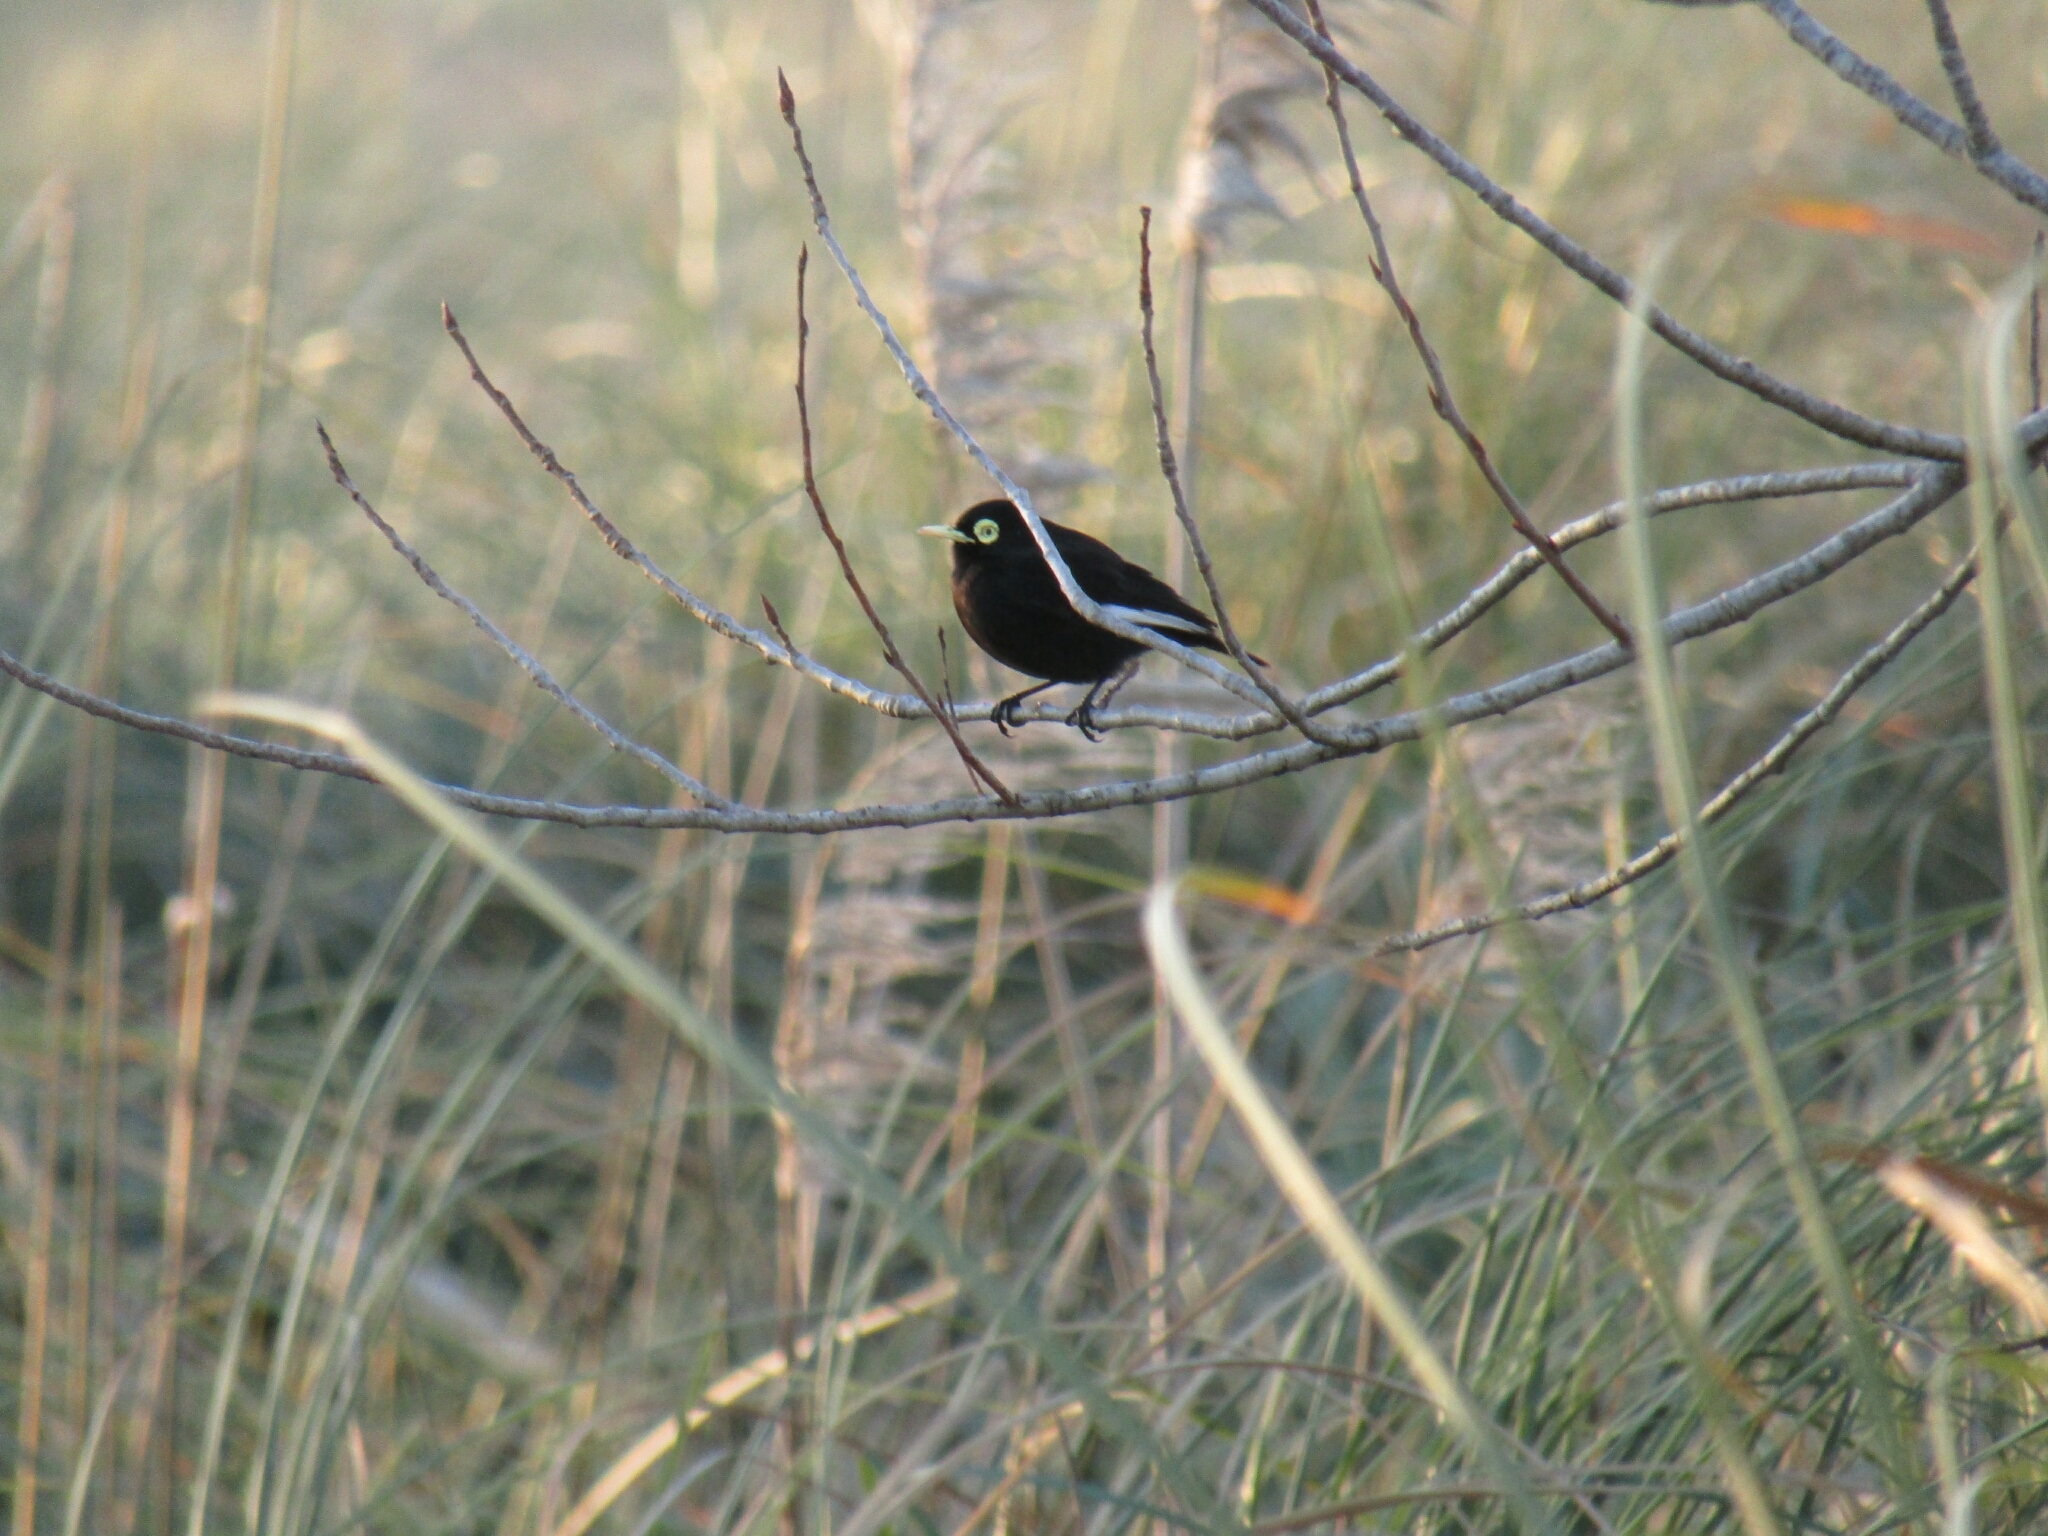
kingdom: Animalia
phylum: Chordata
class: Aves
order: Passeriformes
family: Tyrannidae
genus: Hymenops
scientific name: Hymenops perspicillatus
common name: Spectacled tyrant
